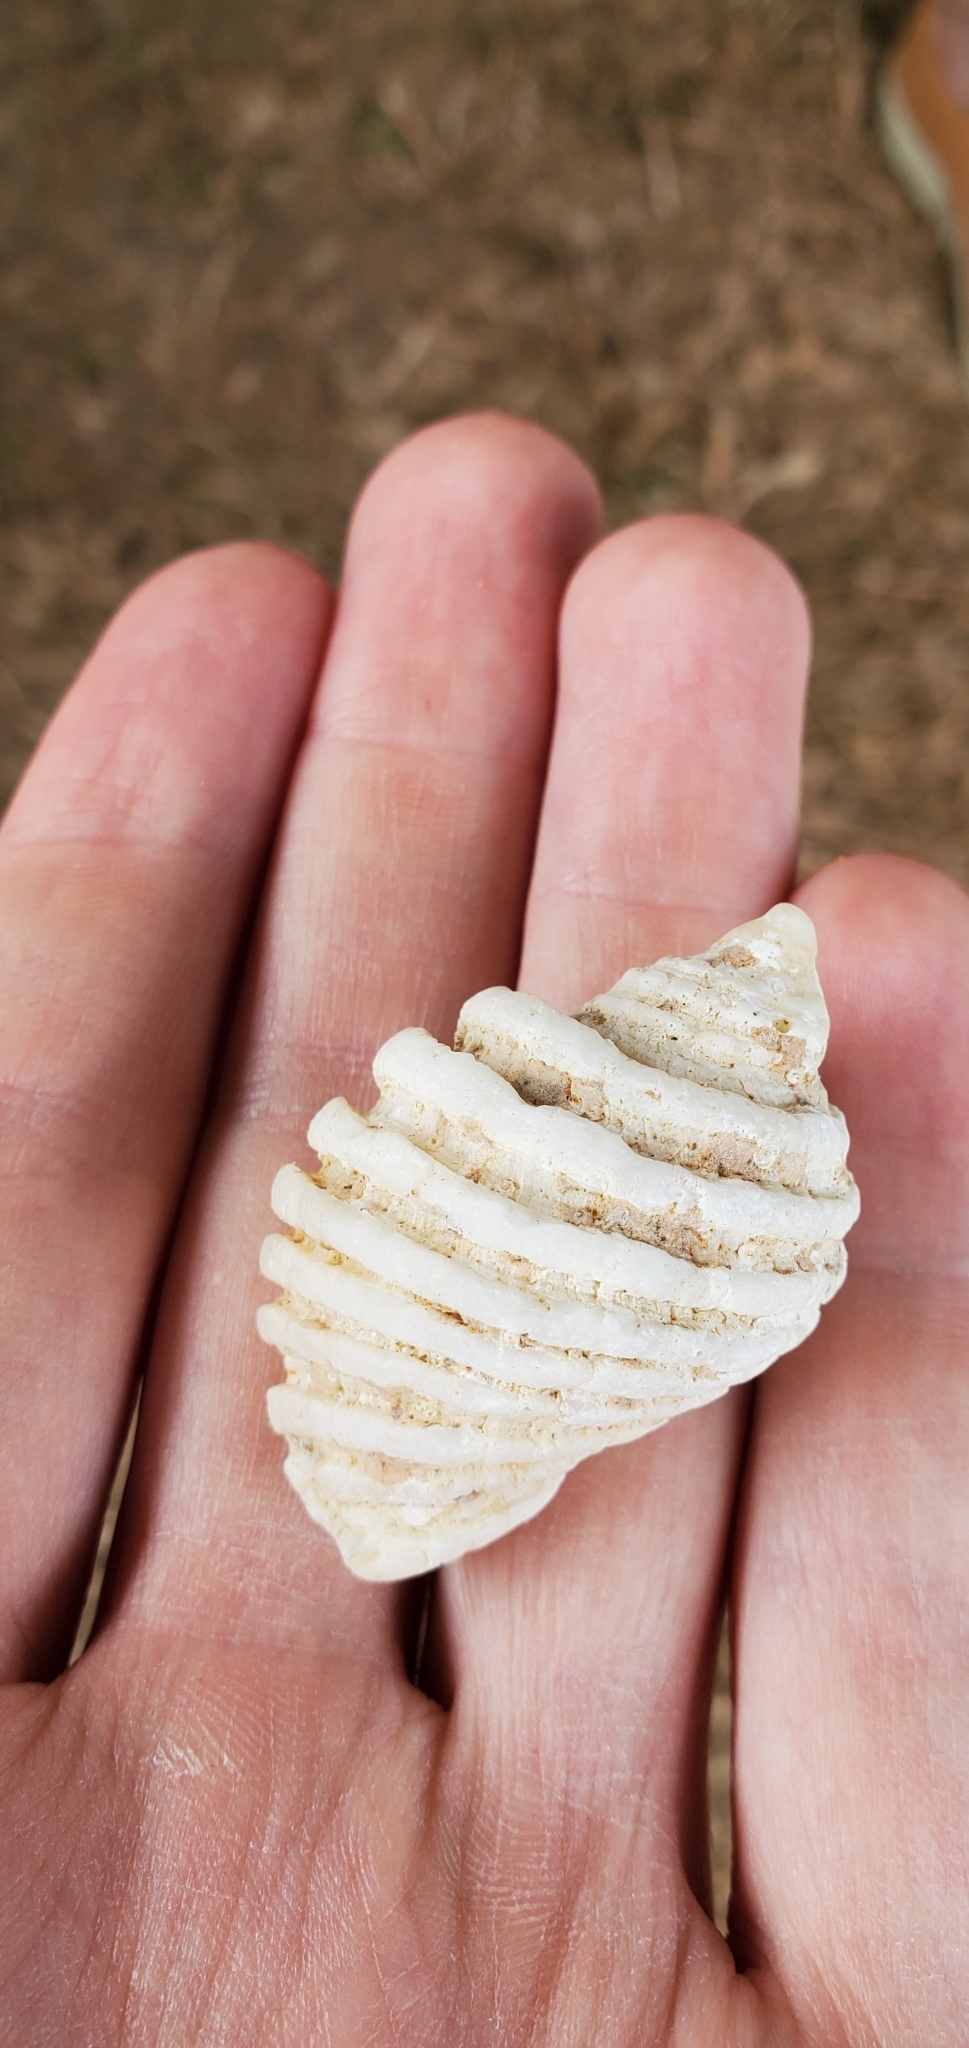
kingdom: Animalia
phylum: Mollusca
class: Gastropoda
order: Neogastropoda
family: Muricidae
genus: Dicathais
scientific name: Dicathais orbita
